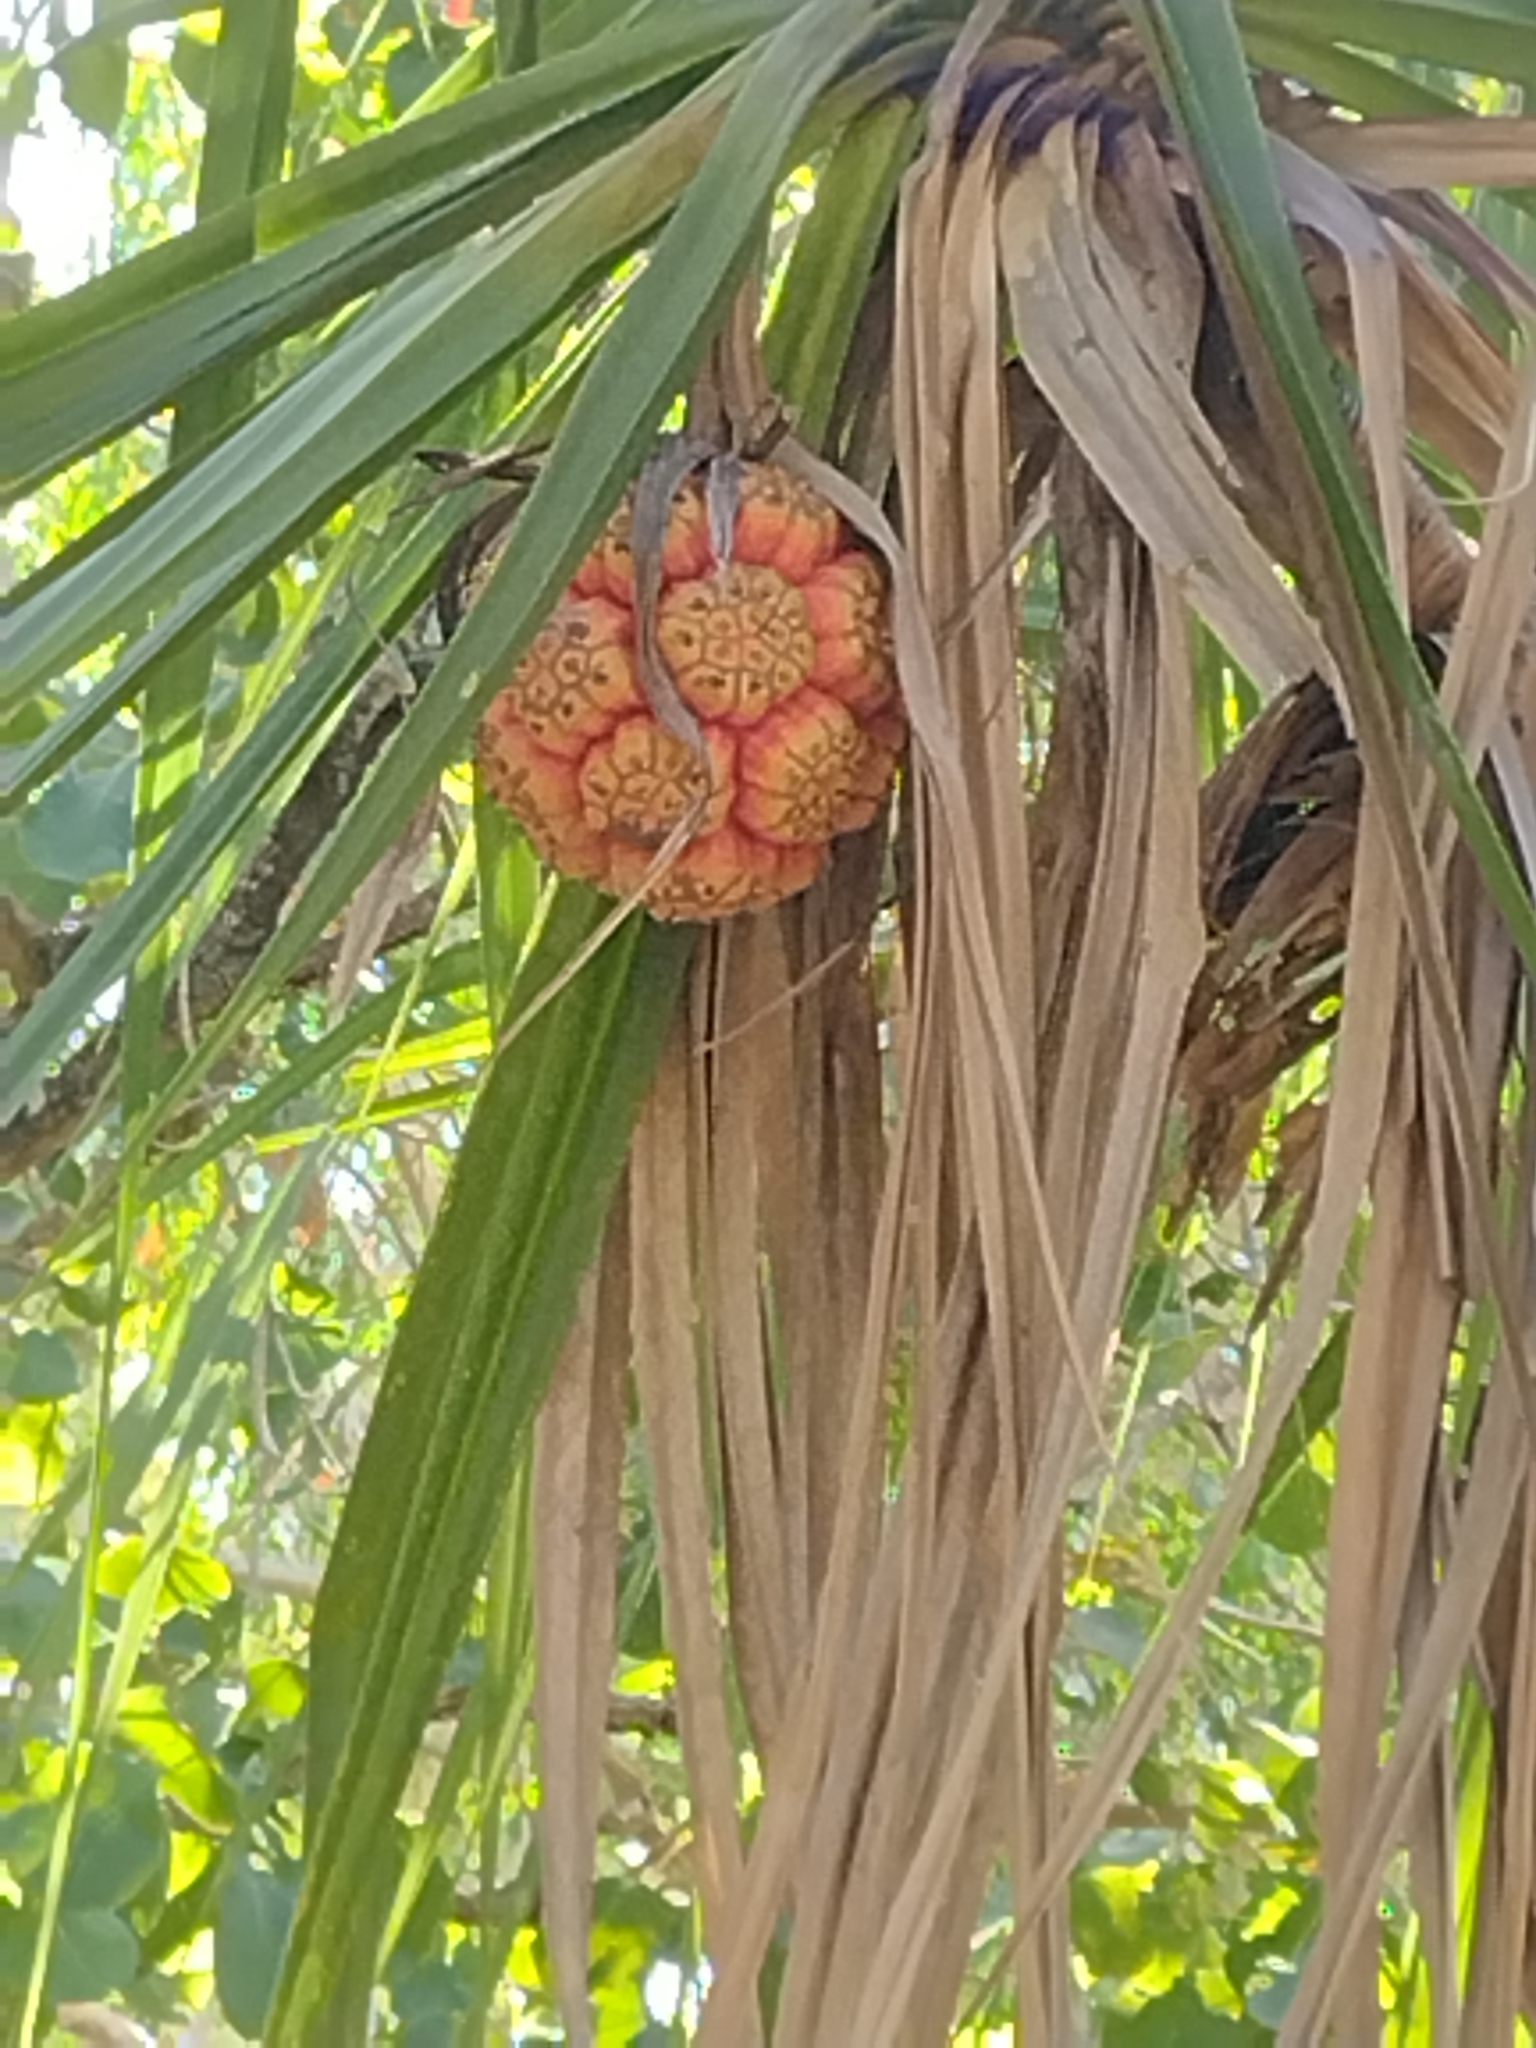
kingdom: Plantae
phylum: Tracheophyta
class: Liliopsida
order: Pandanales
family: Pandanaceae
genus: Pandanus
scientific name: Pandanus spiralis
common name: Screw-pine
